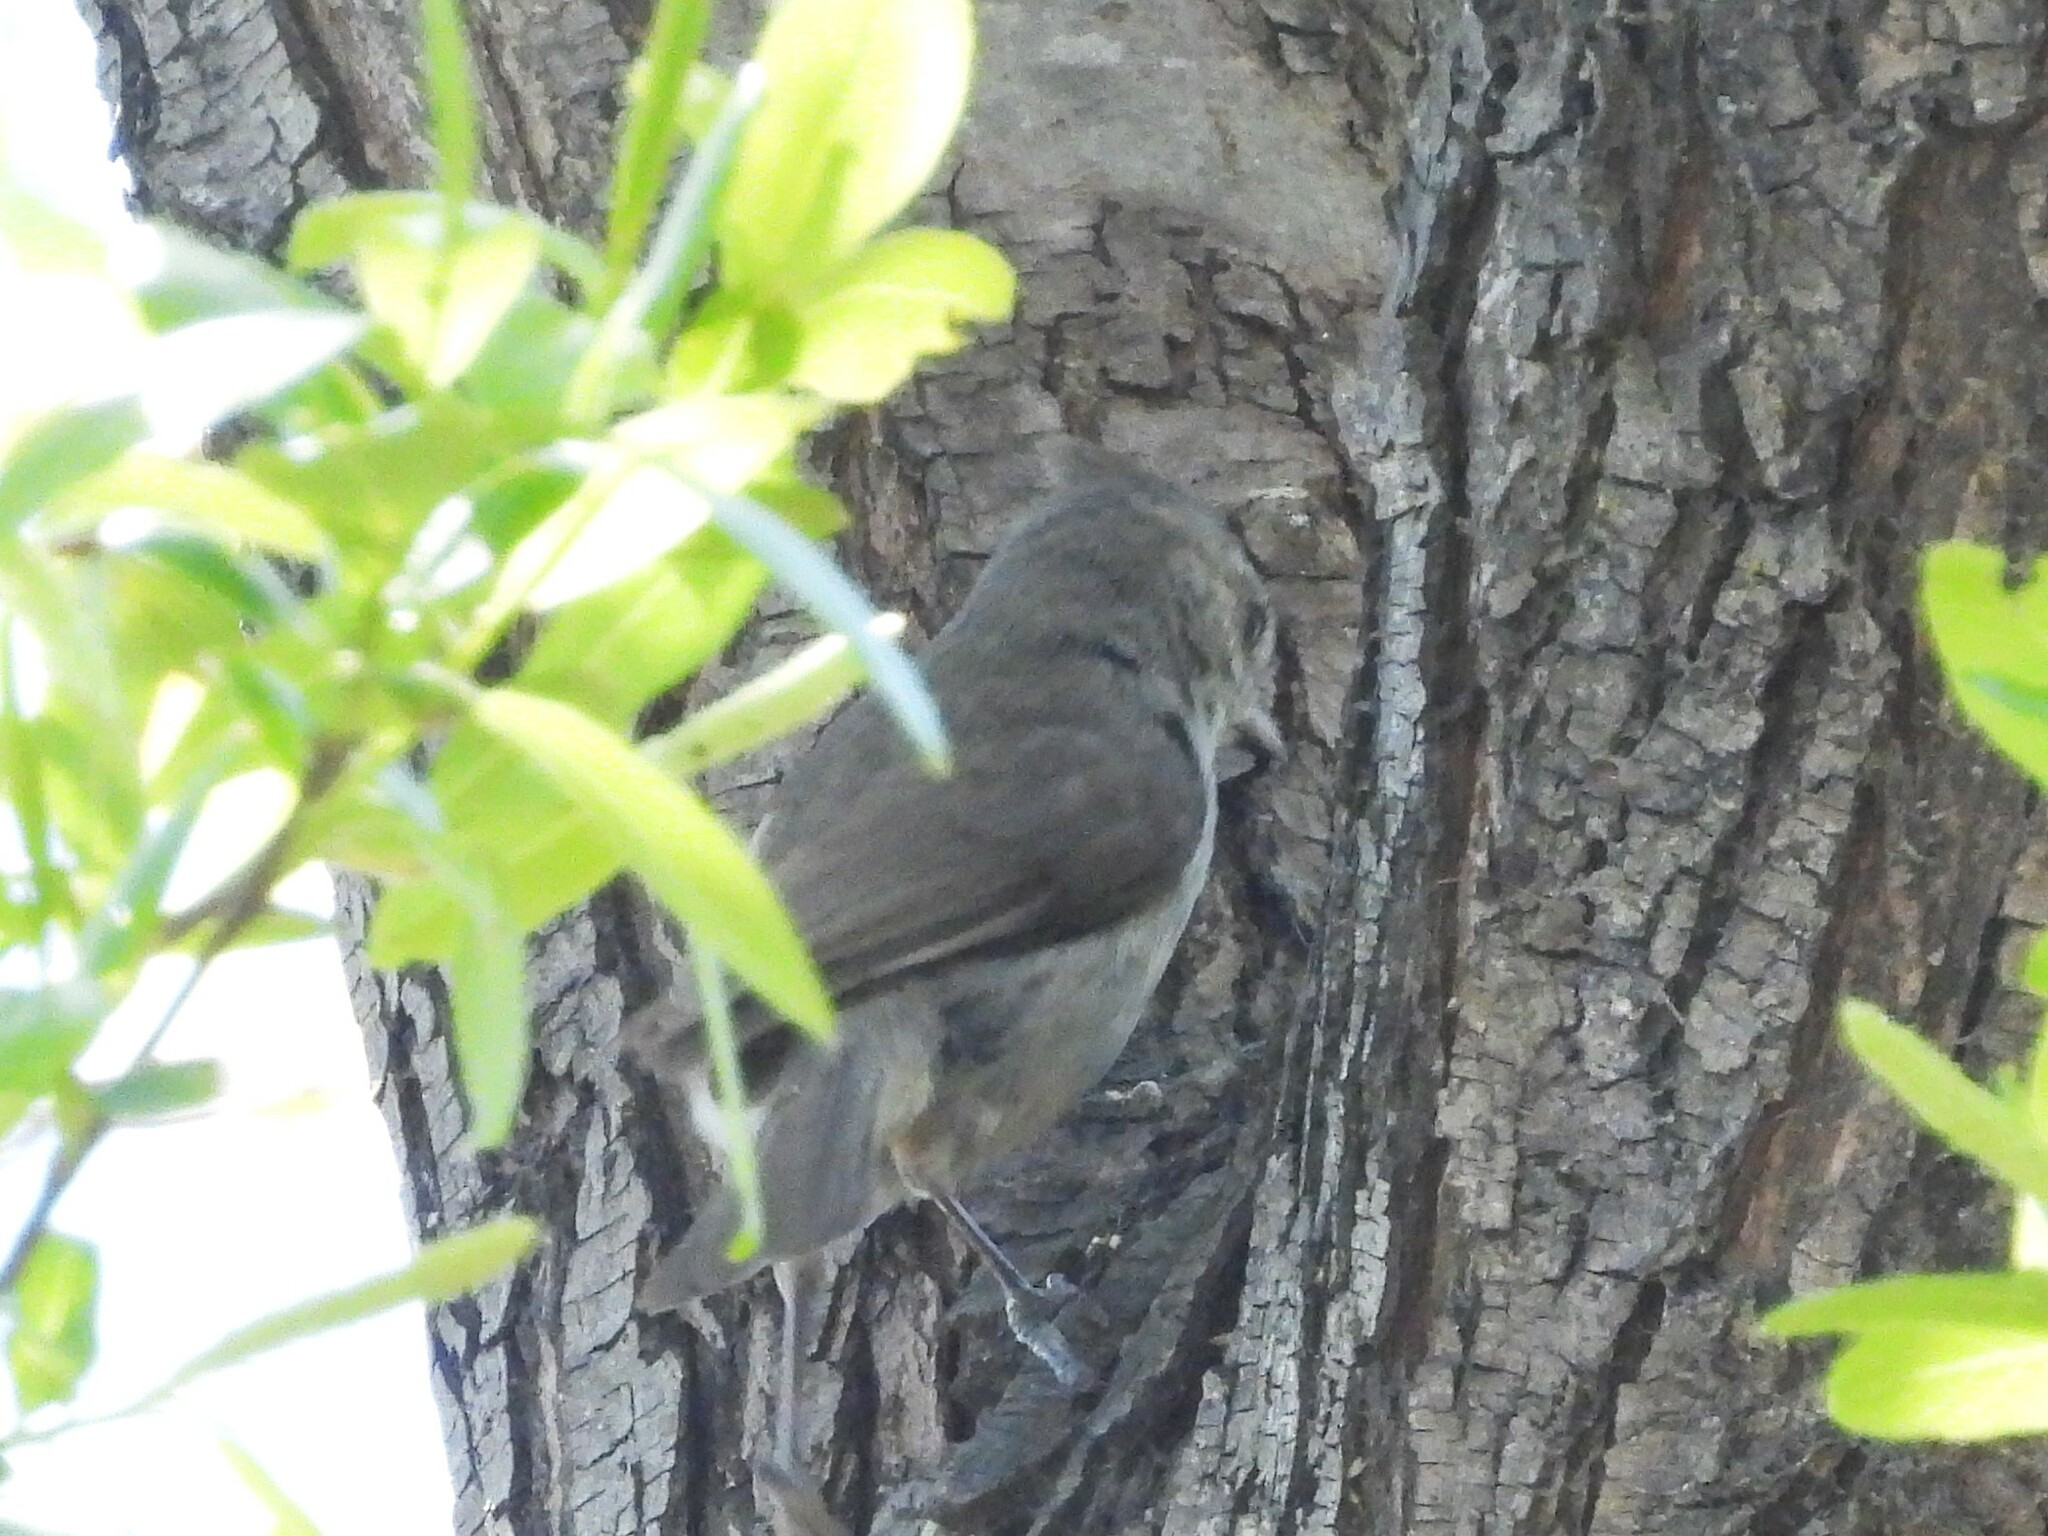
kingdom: Animalia
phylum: Chordata
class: Aves
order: Passeriformes
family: Paridae
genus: Baeolophus
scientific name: Baeolophus inornatus
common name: Oak titmouse
